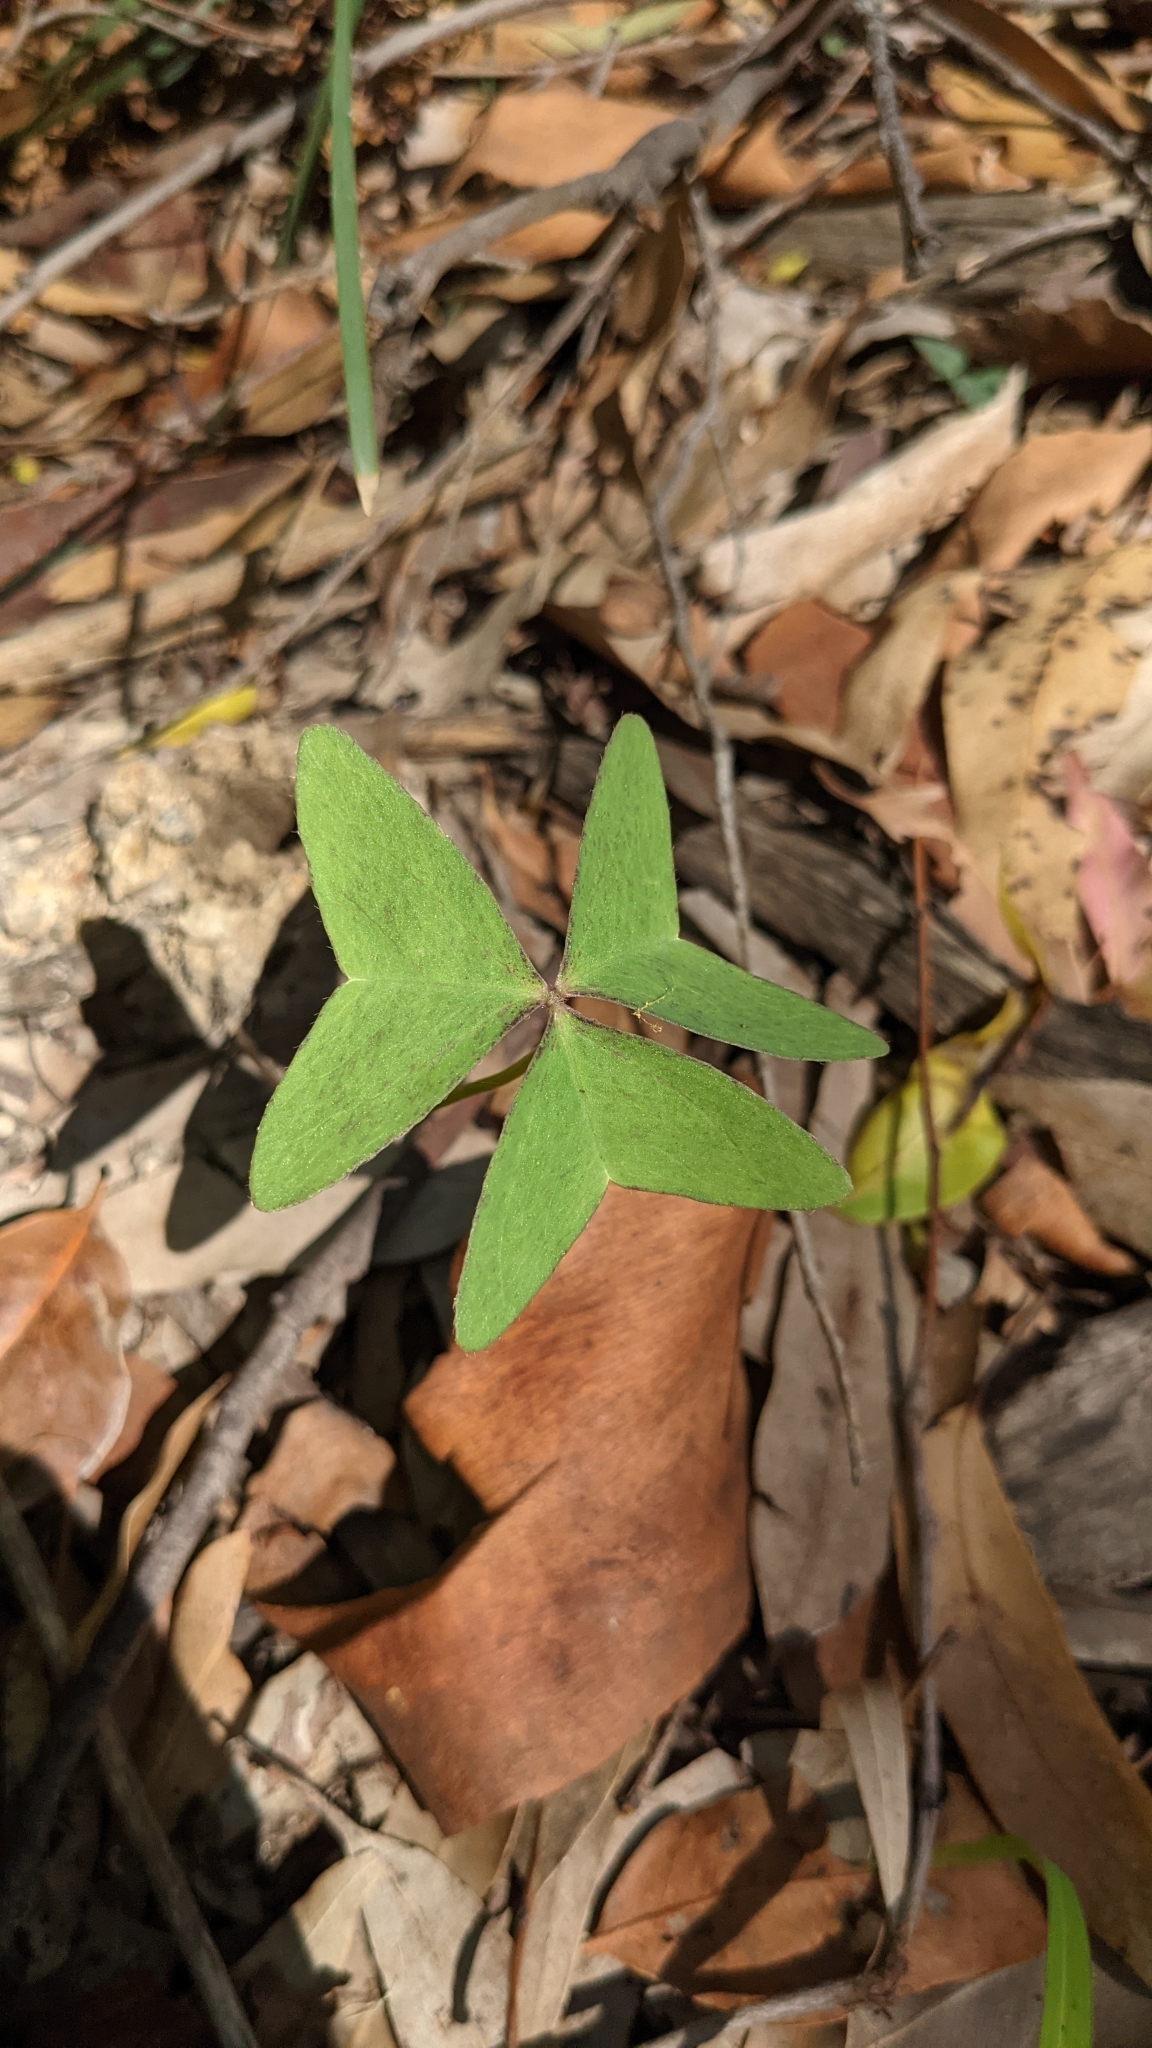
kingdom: Plantae
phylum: Tracheophyta
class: Magnoliopsida
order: Oxalidales
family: Oxalidaceae
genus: Oxalis
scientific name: Oxalis latifolia
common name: Garden pink-sorrel
